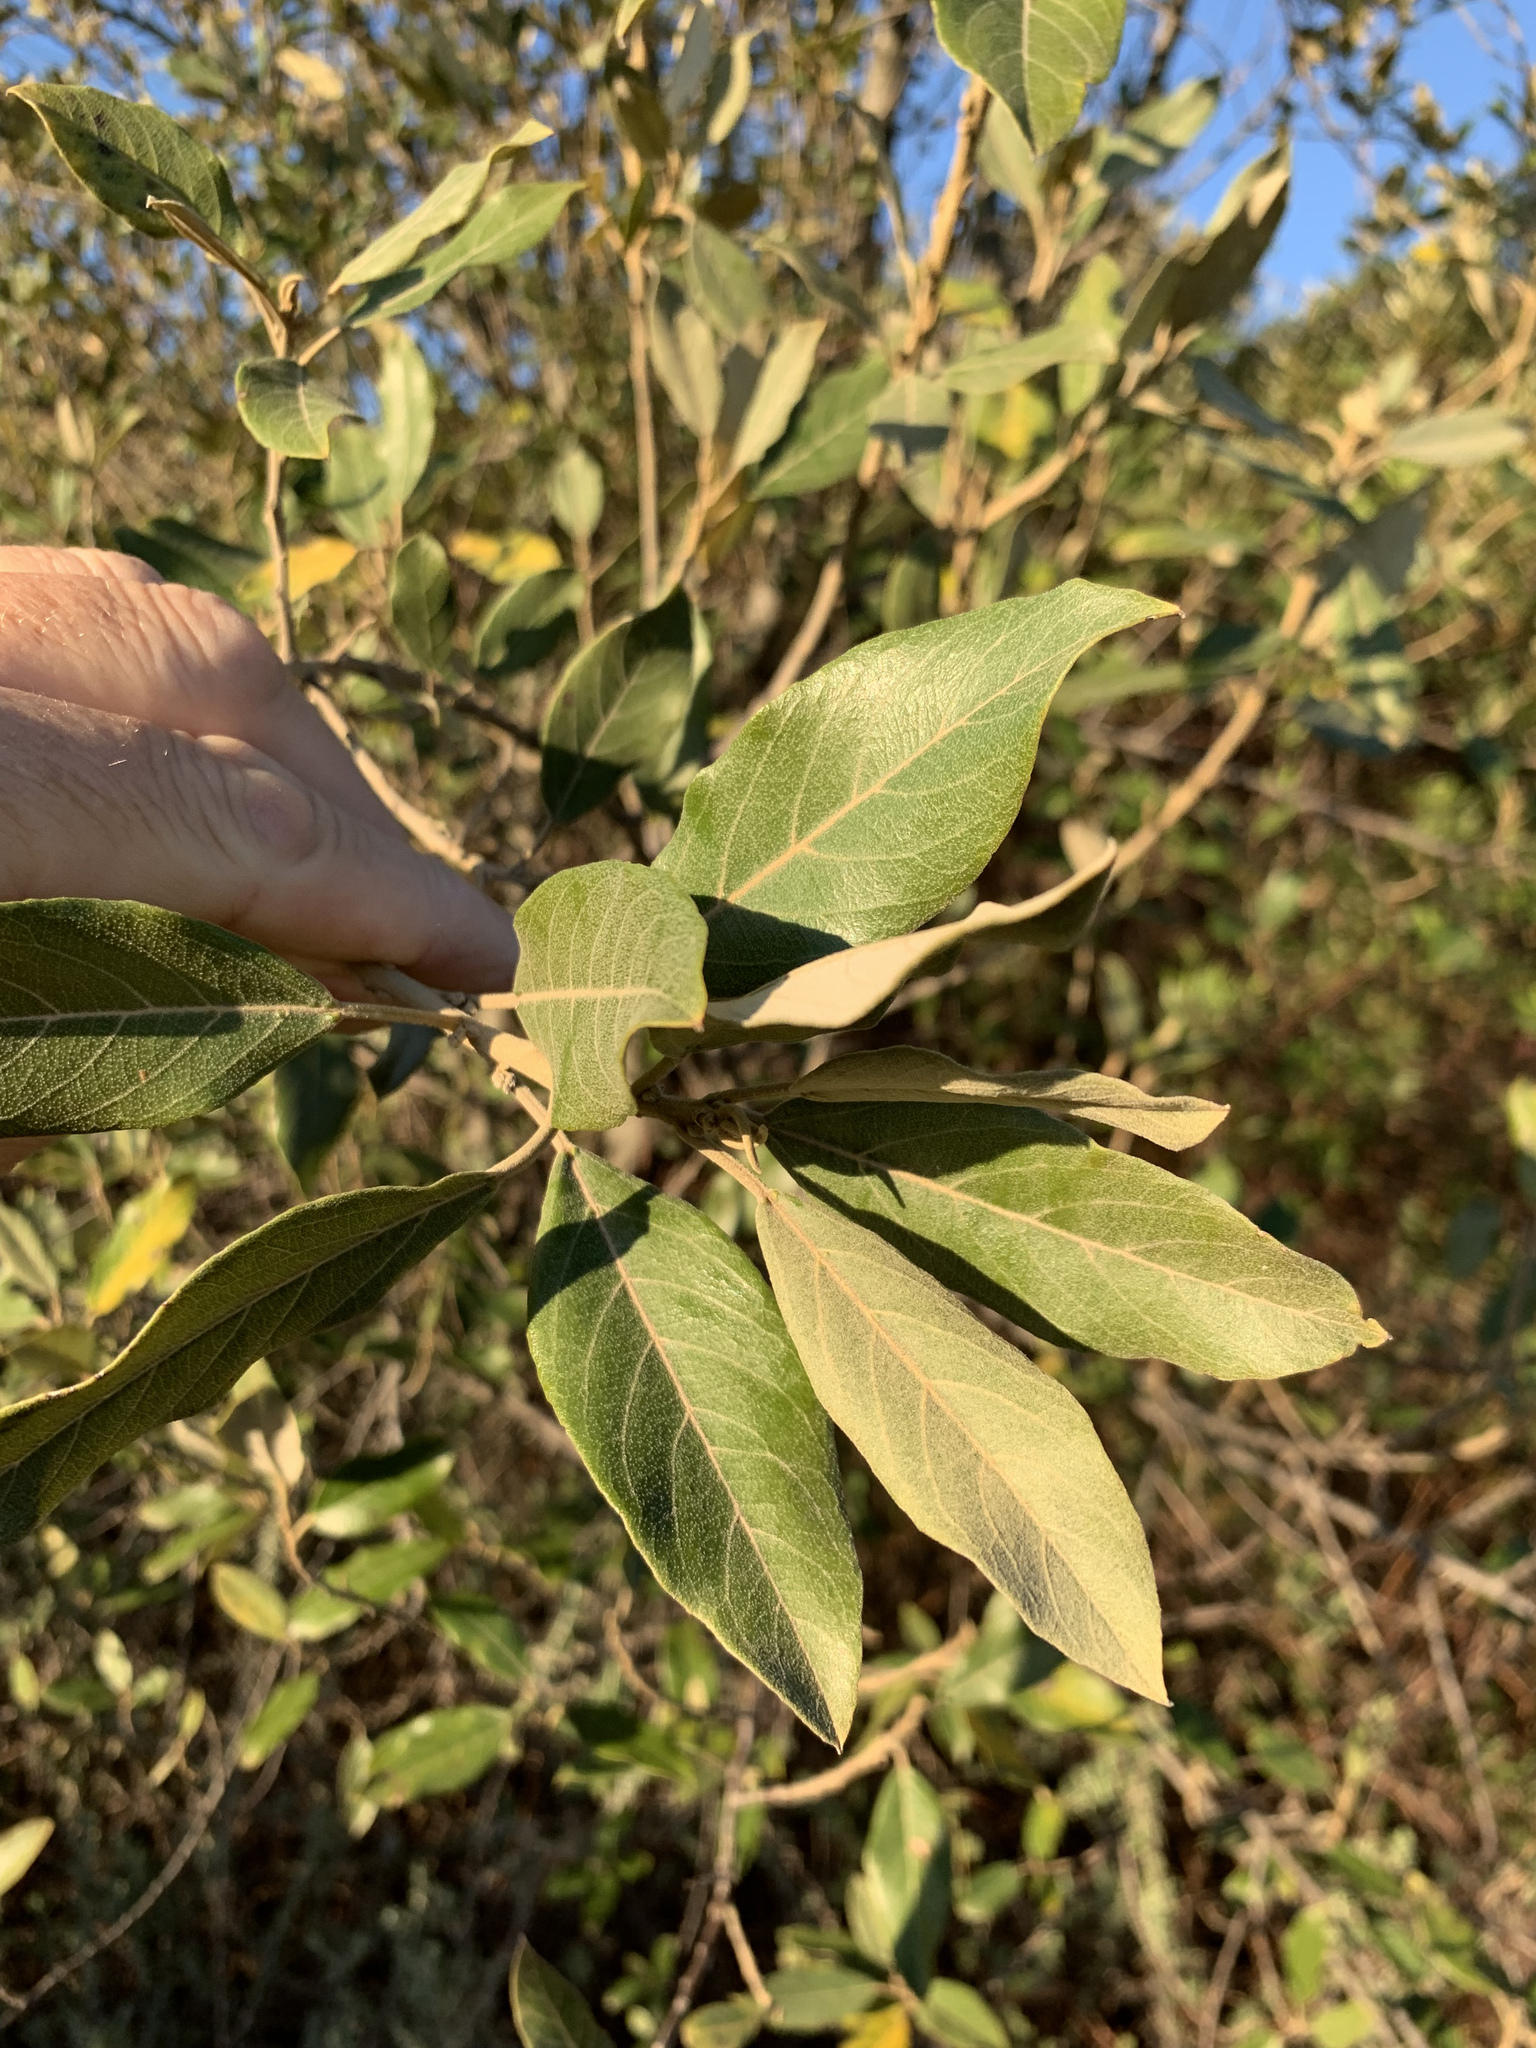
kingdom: Plantae
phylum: Tracheophyta
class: Magnoliopsida
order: Malpighiales
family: Achariaceae
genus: Kiggelaria
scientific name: Kiggelaria africana
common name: Wild peach
